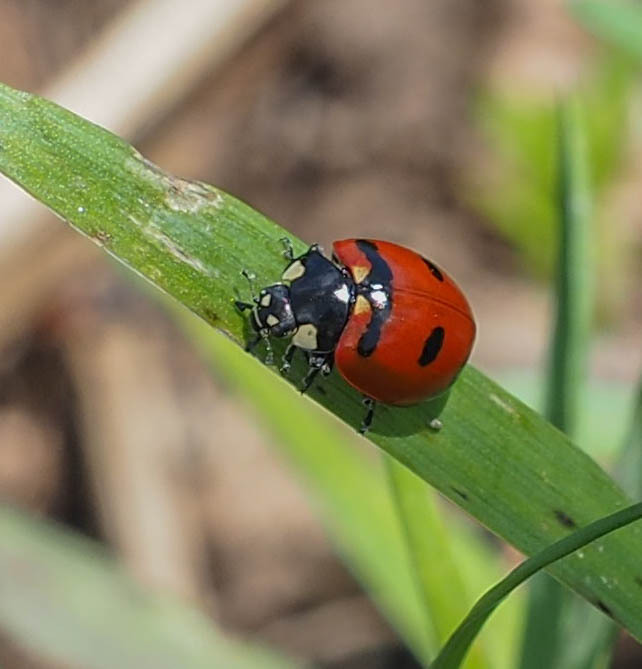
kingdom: Animalia
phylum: Arthropoda
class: Insecta
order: Coleoptera
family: Coccinellidae
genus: Coccinella
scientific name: Coccinella transversoguttata
